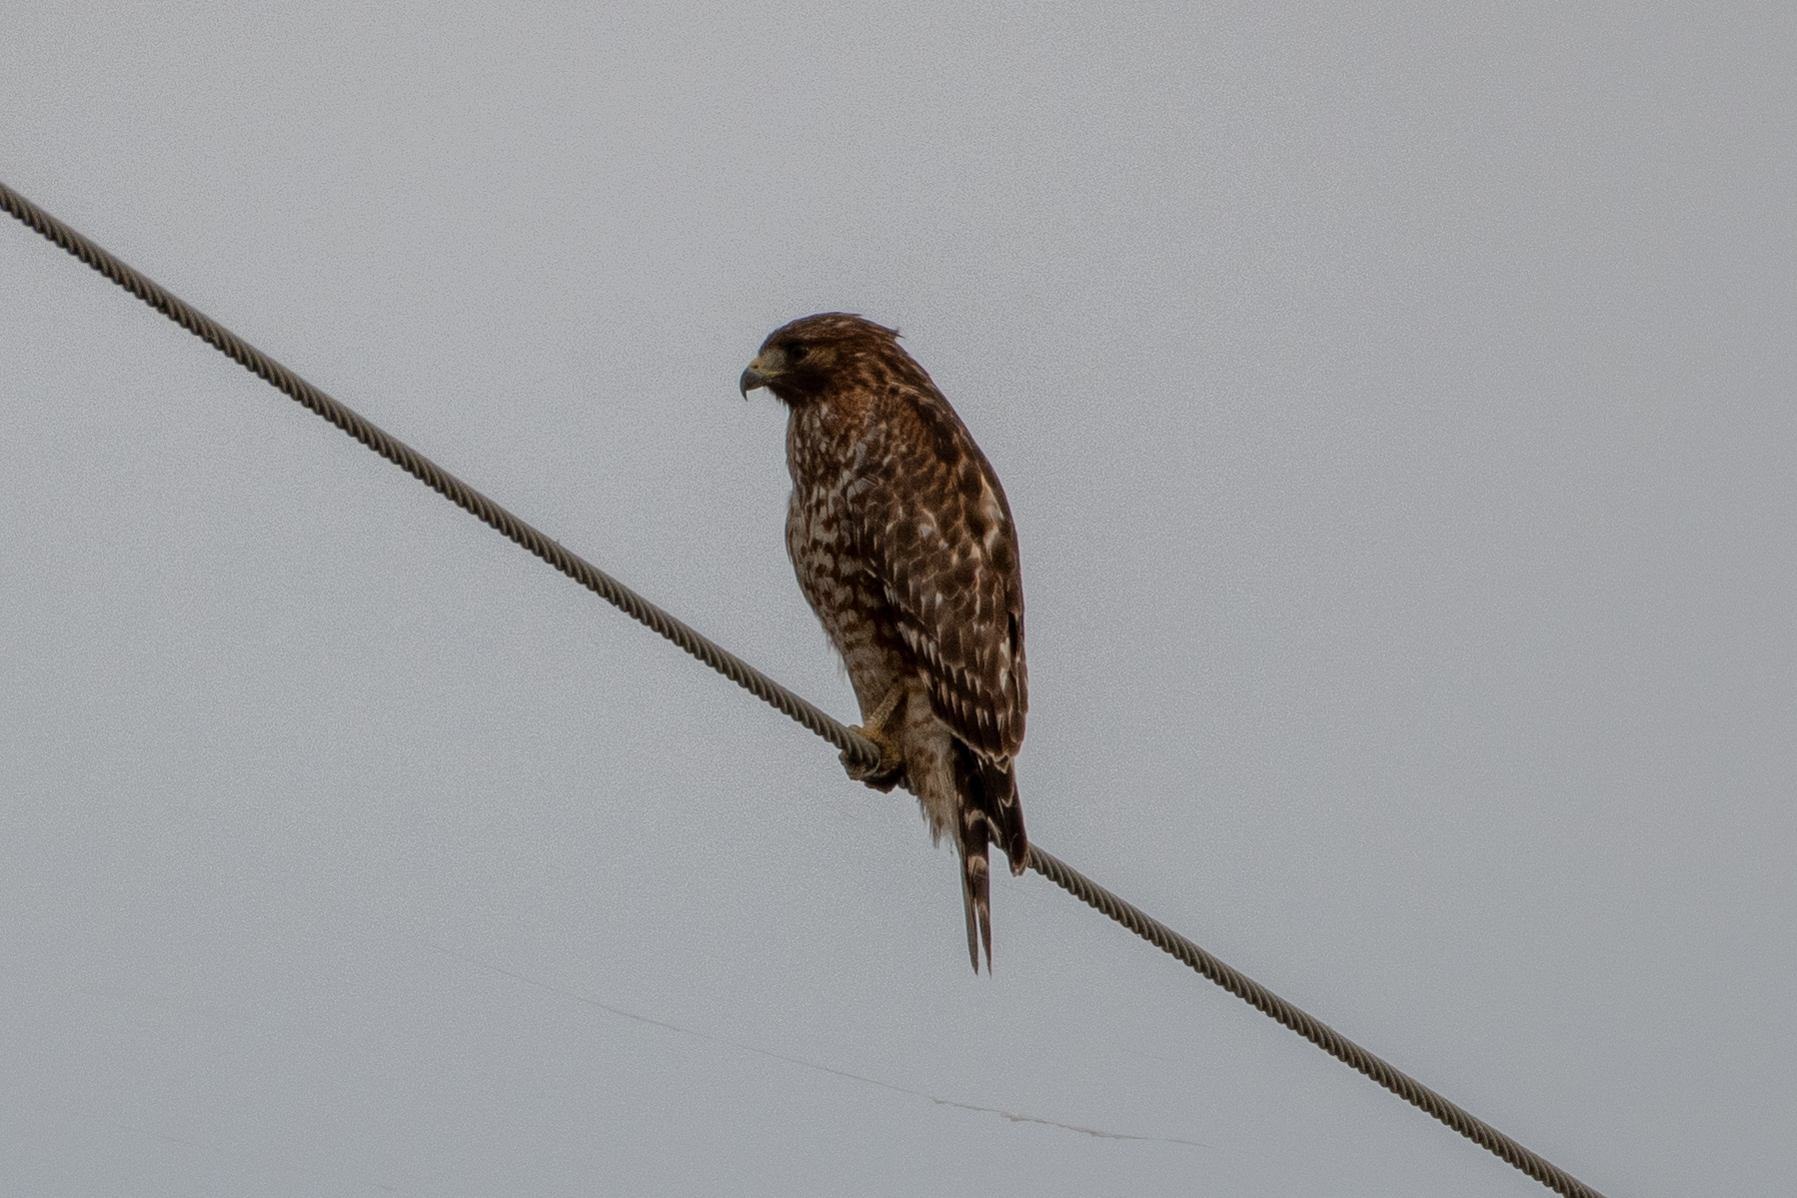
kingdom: Animalia
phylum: Chordata
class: Aves
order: Accipitriformes
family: Accipitridae
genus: Buteo
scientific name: Buteo lineatus
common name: Red-shouldered hawk
